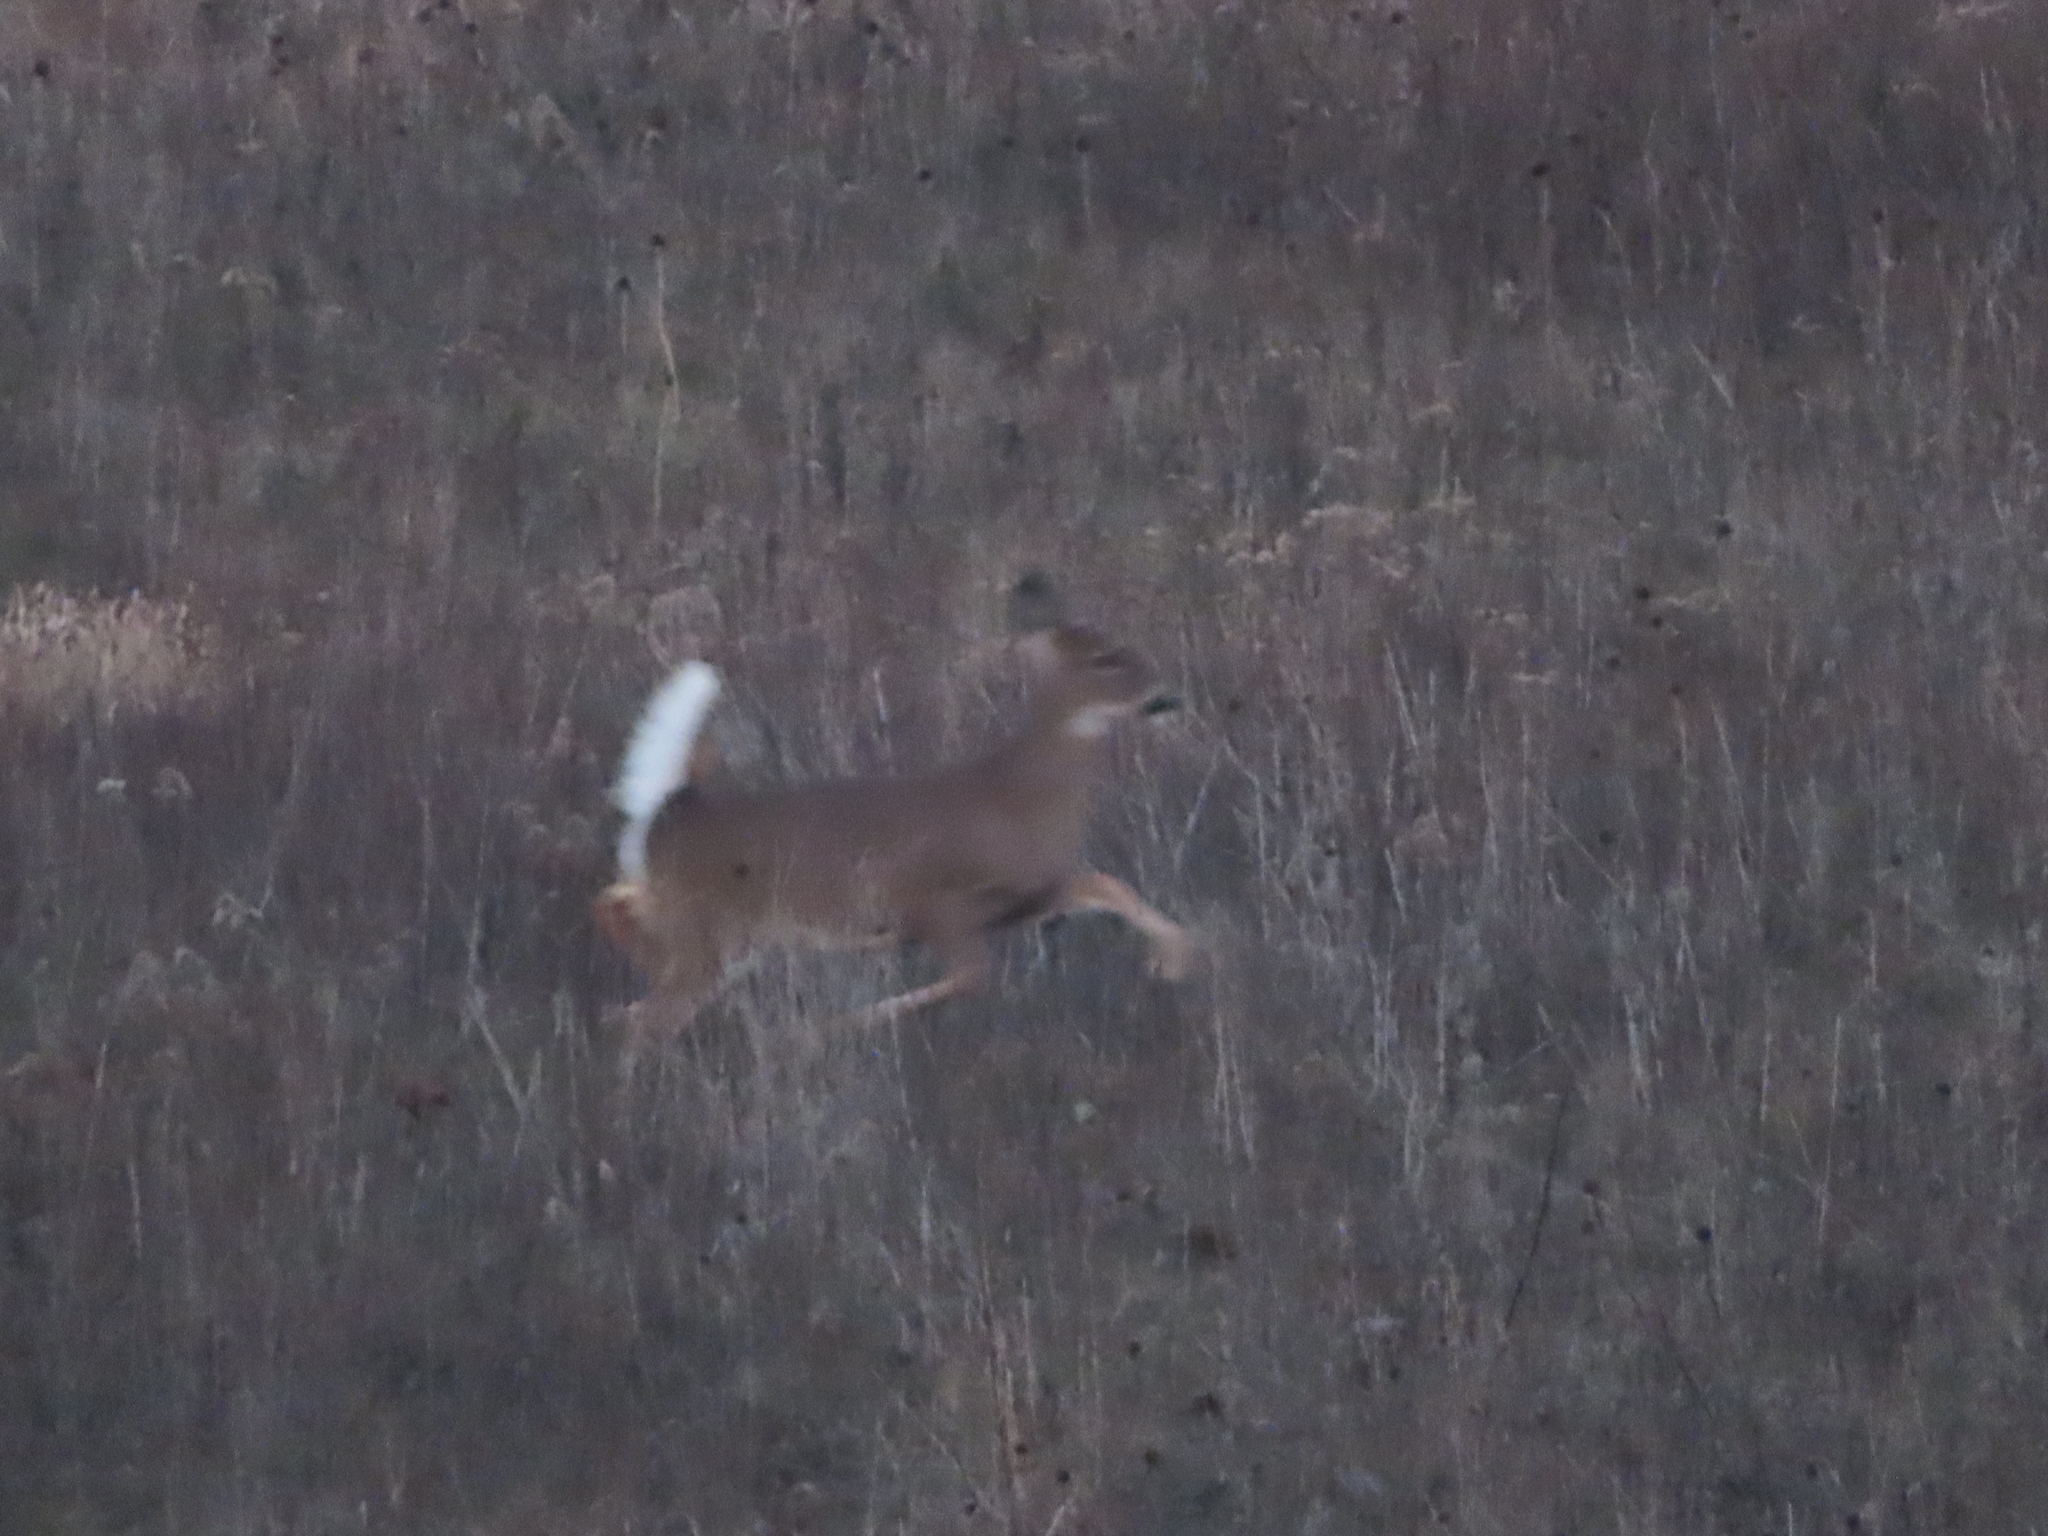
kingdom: Animalia
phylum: Chordata
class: Mammalia
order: Artiodactyla
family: Cervidae
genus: Odocoileus
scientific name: Odocoileus virginianus
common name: White-tailed deer
